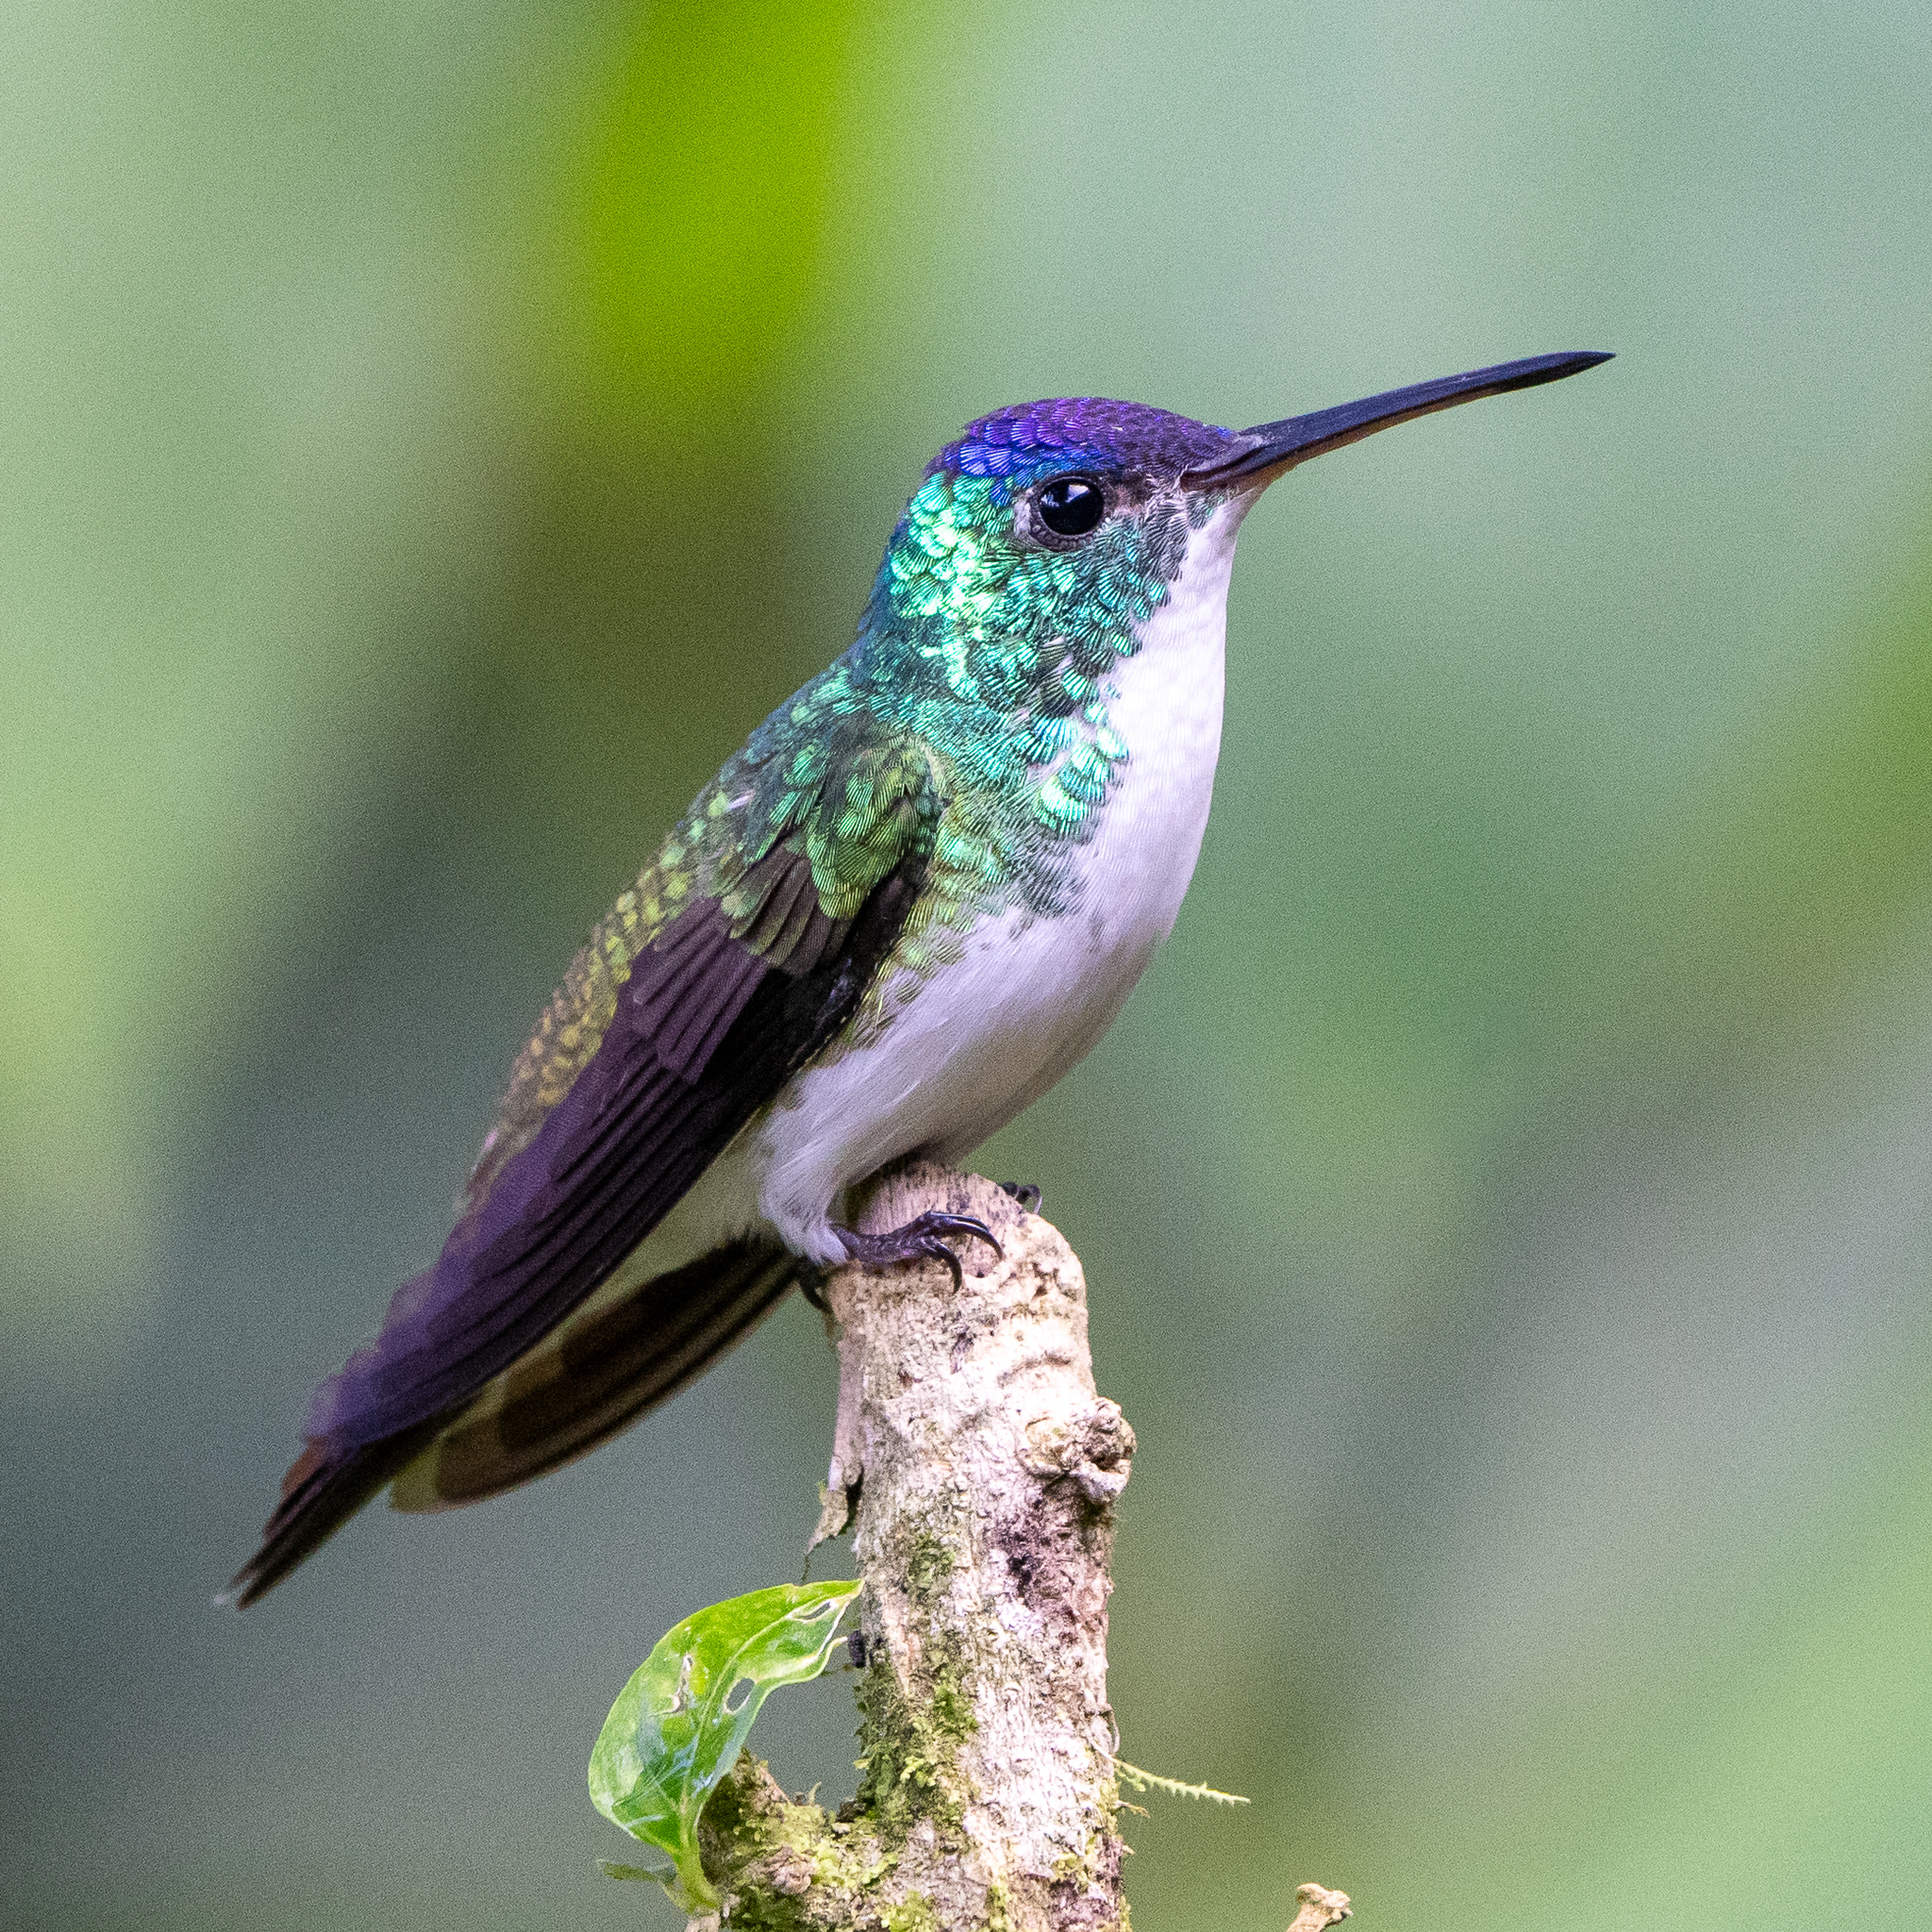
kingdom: Animalia
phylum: Chordata
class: Aves
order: Apodiformes
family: Trochilidae
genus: Uranomitra
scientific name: Uranomitra franciae
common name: Andean emerald
